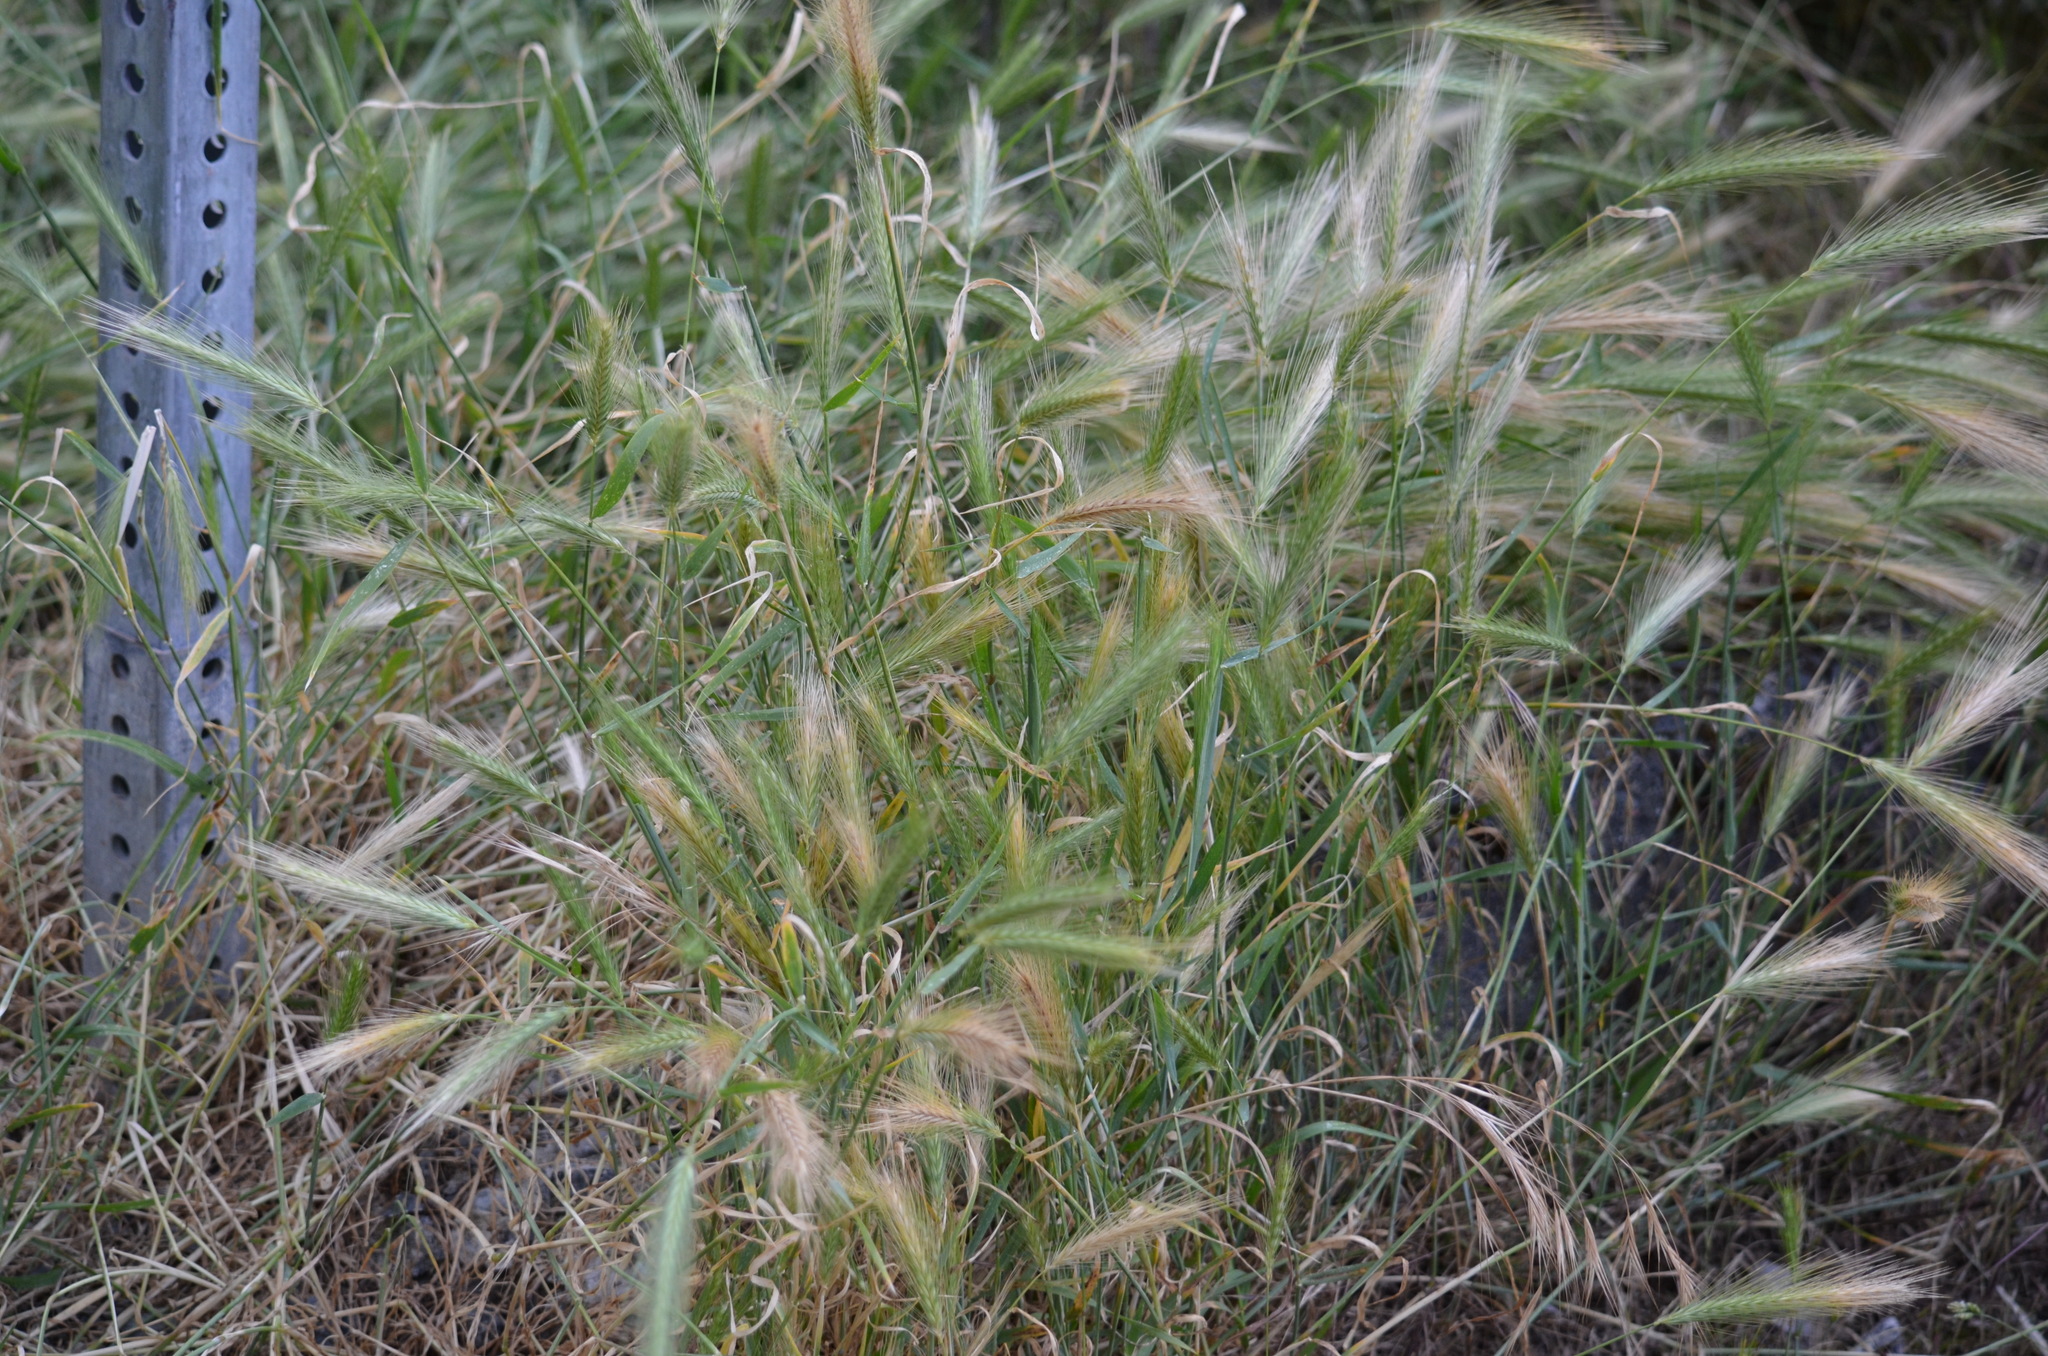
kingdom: Plantae
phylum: Tracheophyta
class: Liliopsida
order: Poales
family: Poaceae
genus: Hordeum
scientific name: Hordeum murinum
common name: Wall barley
